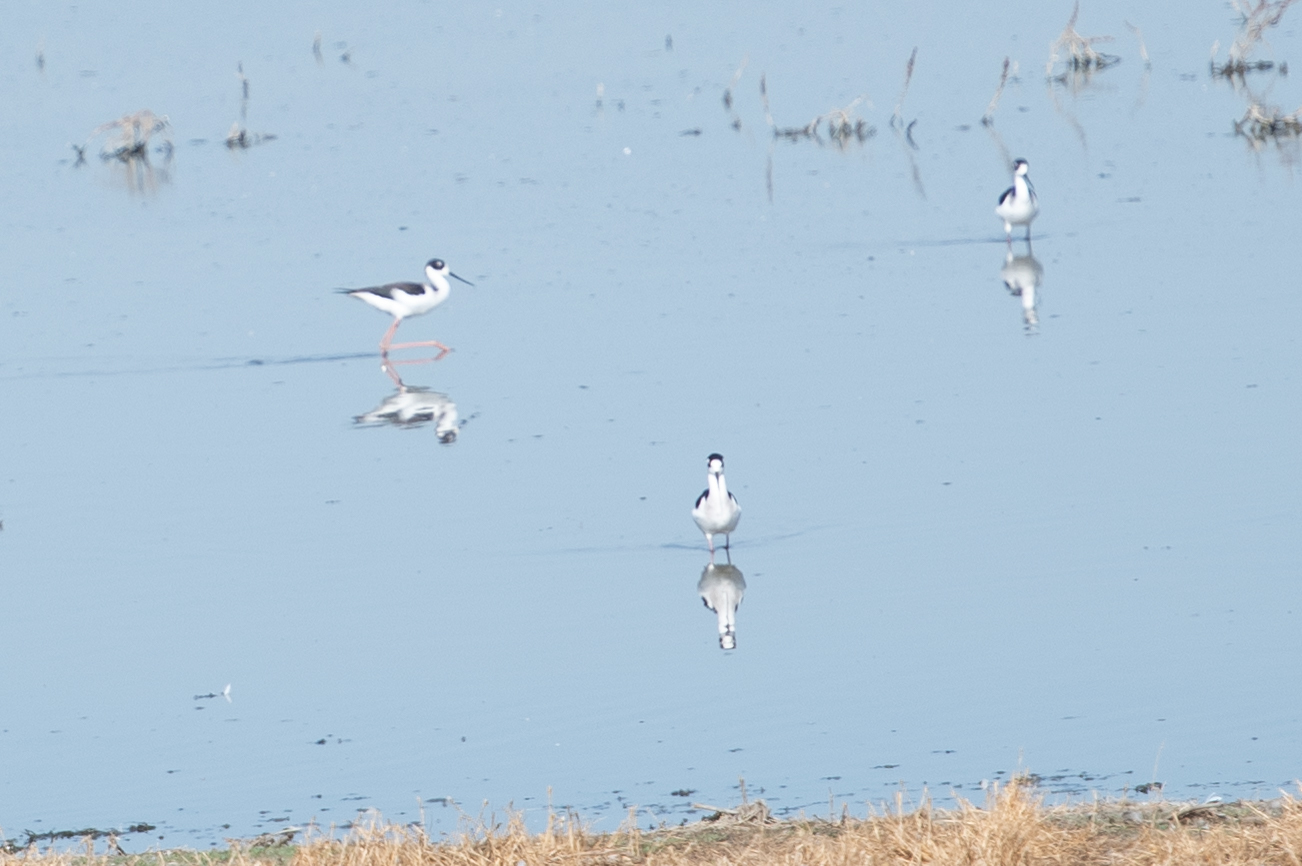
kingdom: Animalia
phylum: Chordata
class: Aves
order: Charadriiformes
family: Recurvirostridae
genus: Himantopus
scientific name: Himantopus mexicanus
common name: Black-necked stilt
